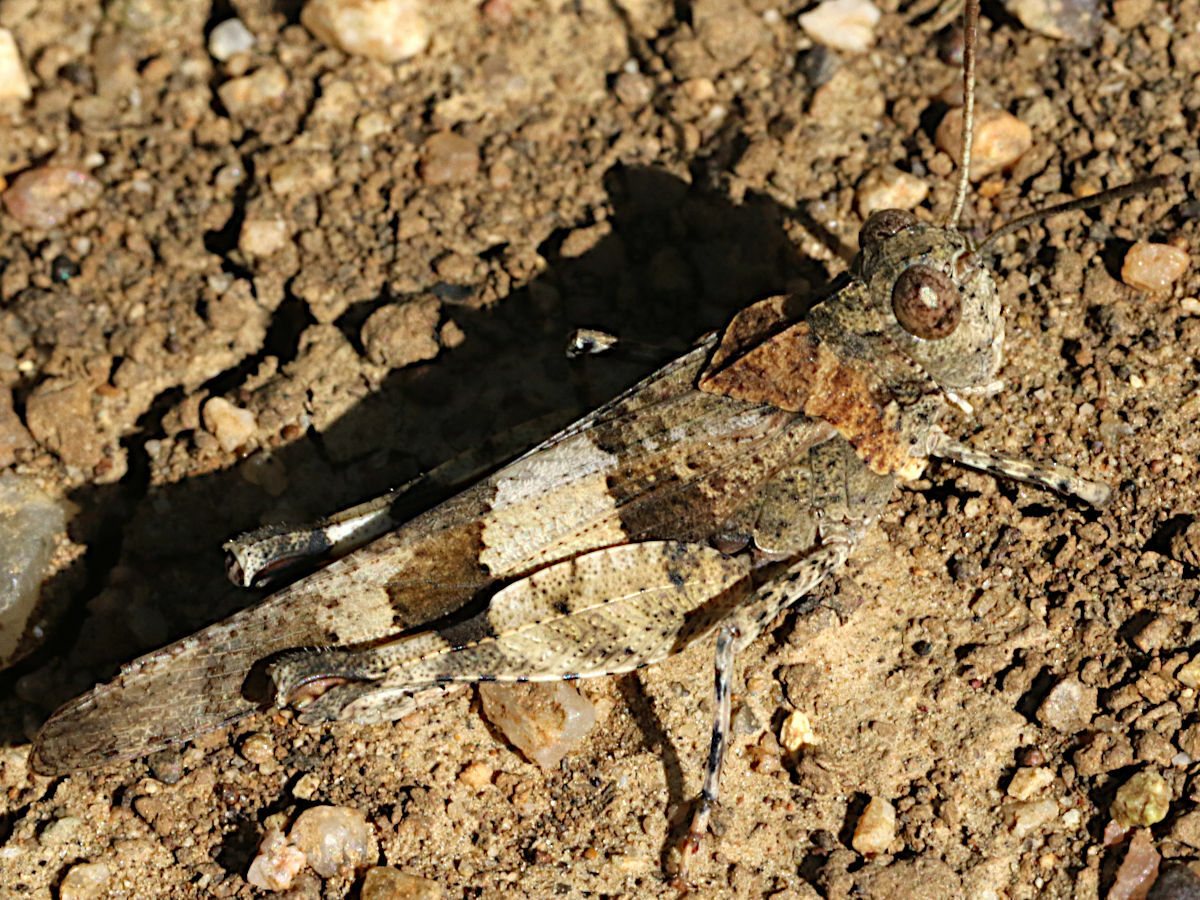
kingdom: Animalia
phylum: Arthropoda
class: Insecta
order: Orthoptera
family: Acrididae
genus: Oedipoda
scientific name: Oedipoda
